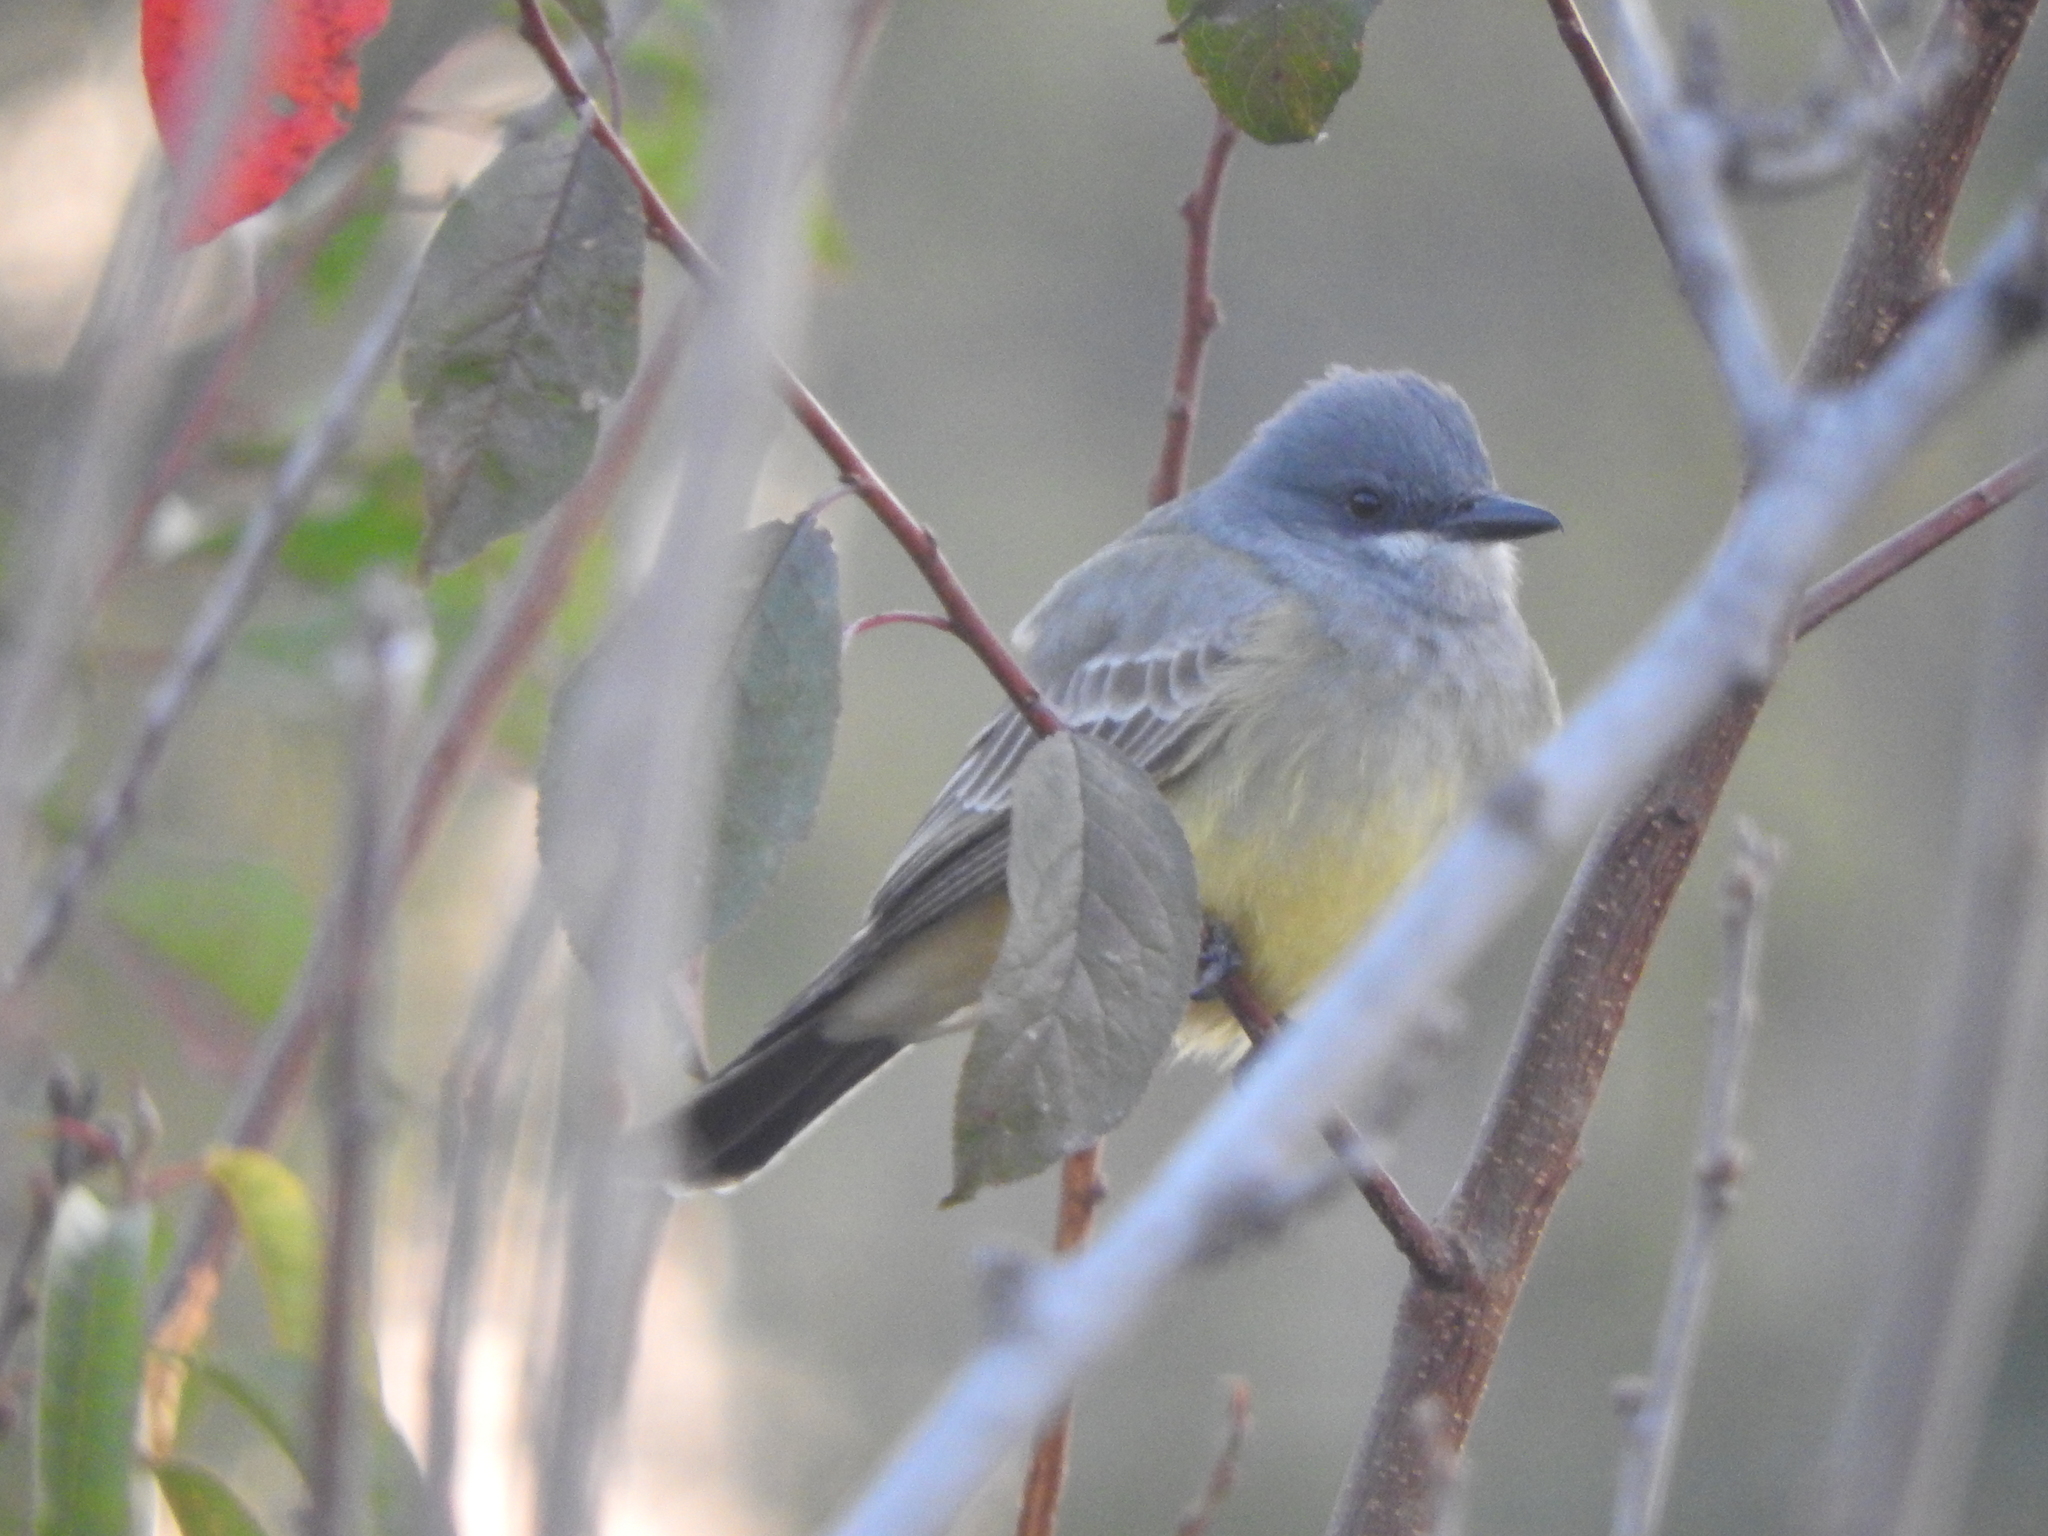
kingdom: Animalia
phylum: Chordata
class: Aves
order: Passeriformes
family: Tyrannidae
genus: Tyrannus
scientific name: Tyrannus vociferans
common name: Cassin's kingbird
